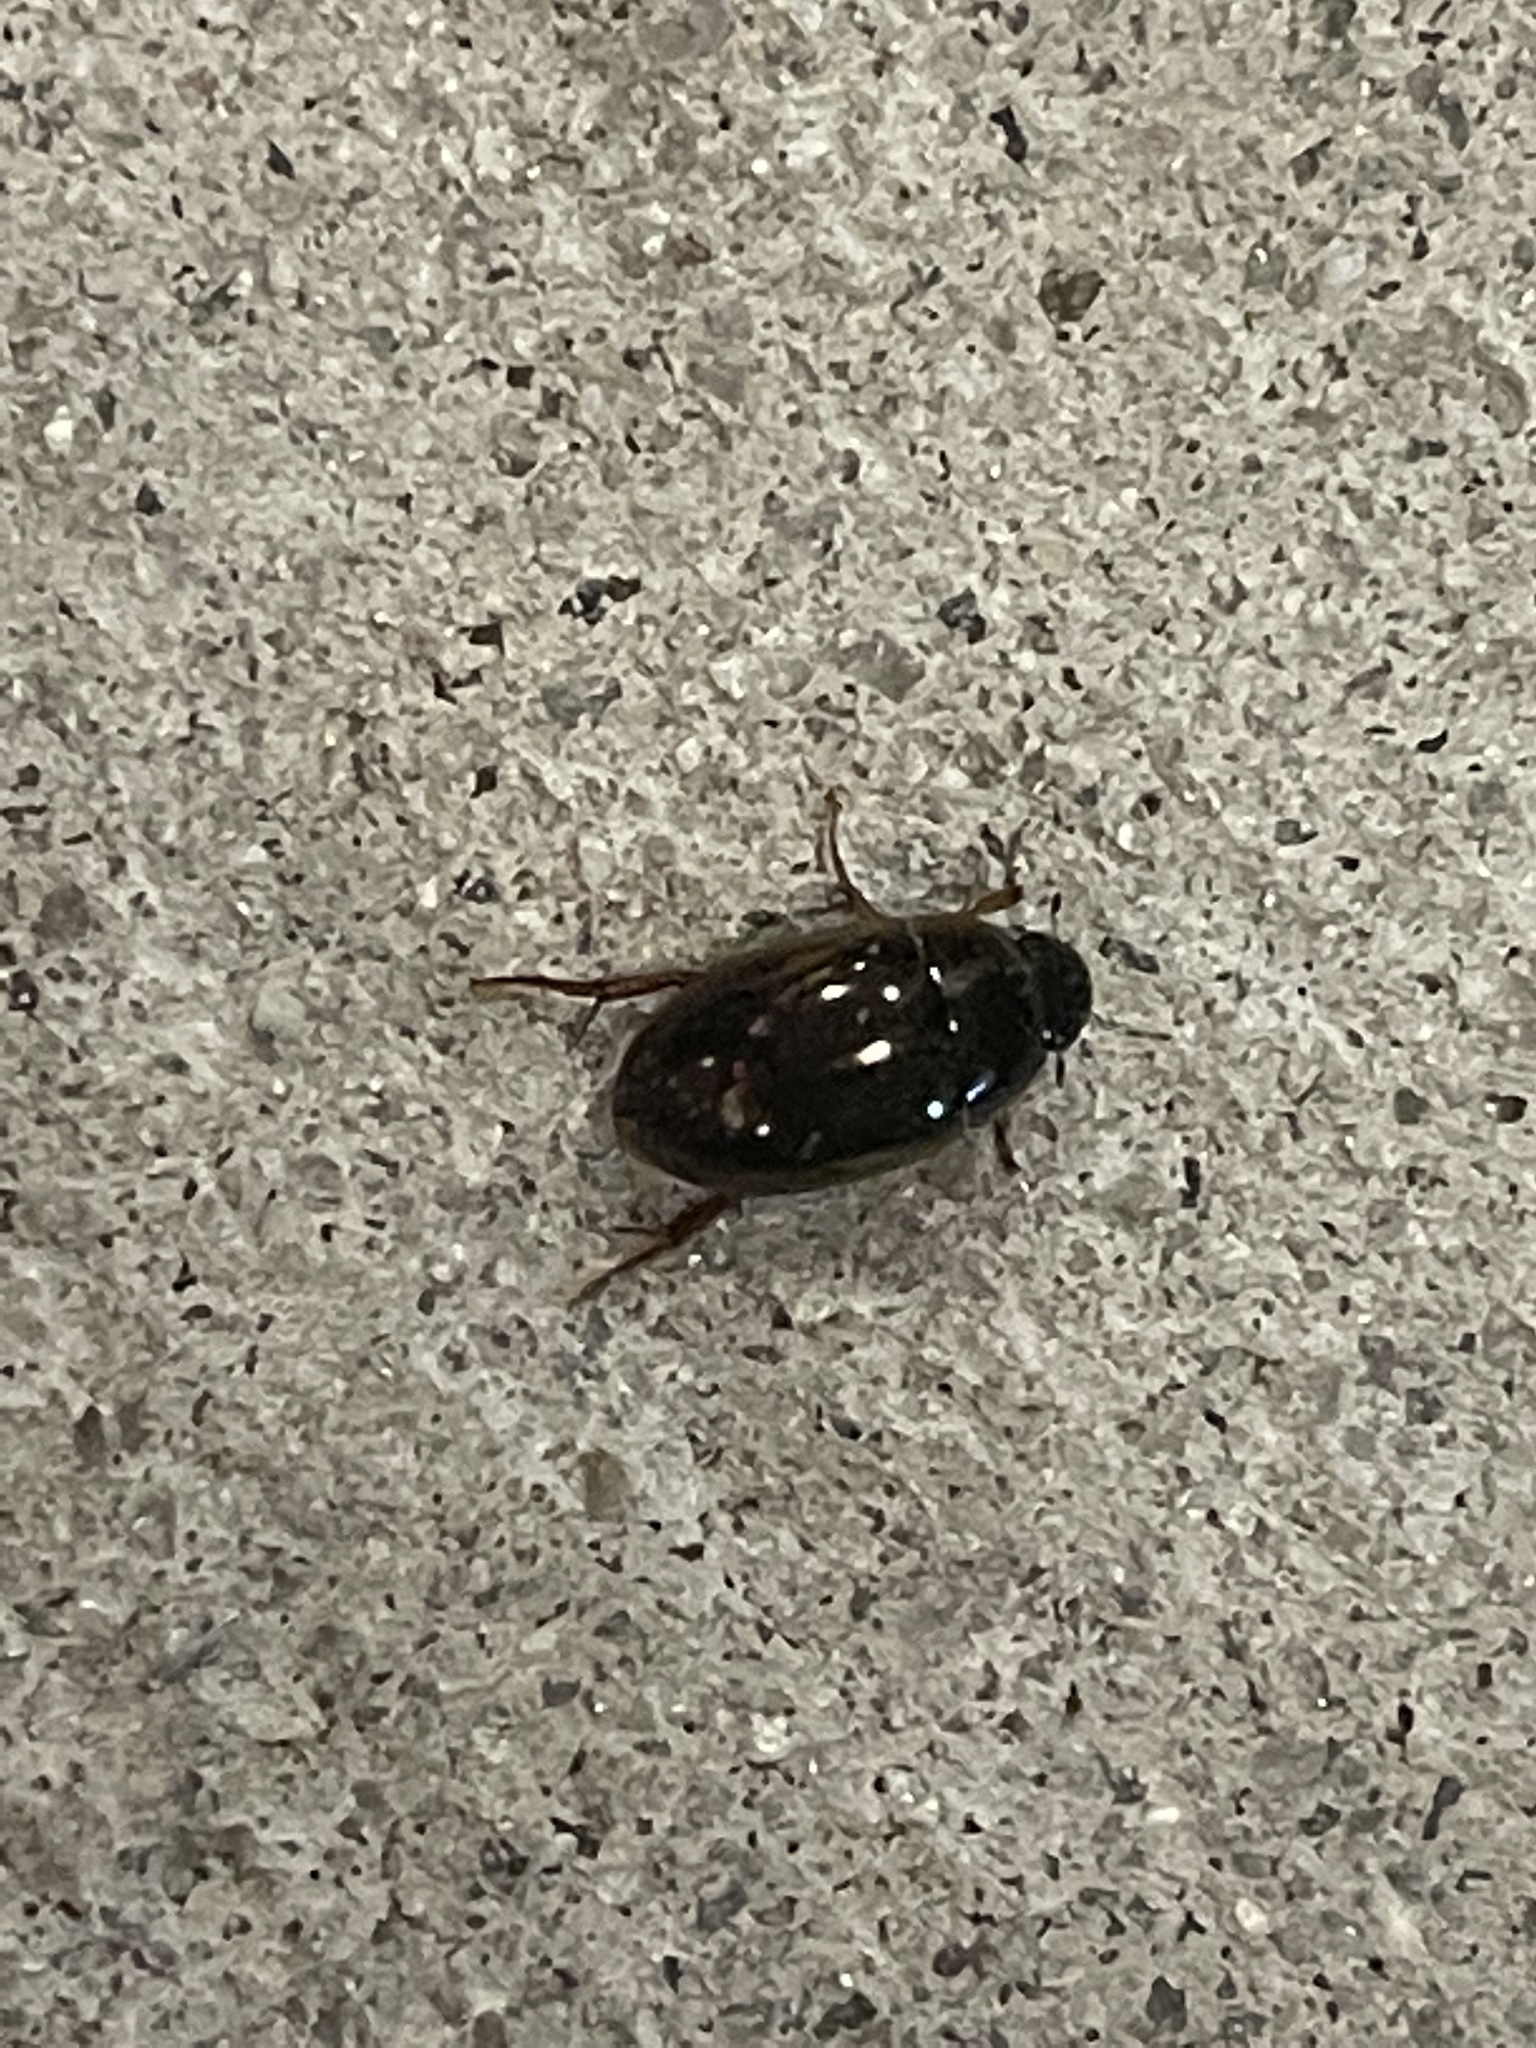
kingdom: Animalia
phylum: Arthropoda
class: Insecta
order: Coleoptera
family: Hydrophilidae
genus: Tropisternus
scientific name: Tropisternus collaris
